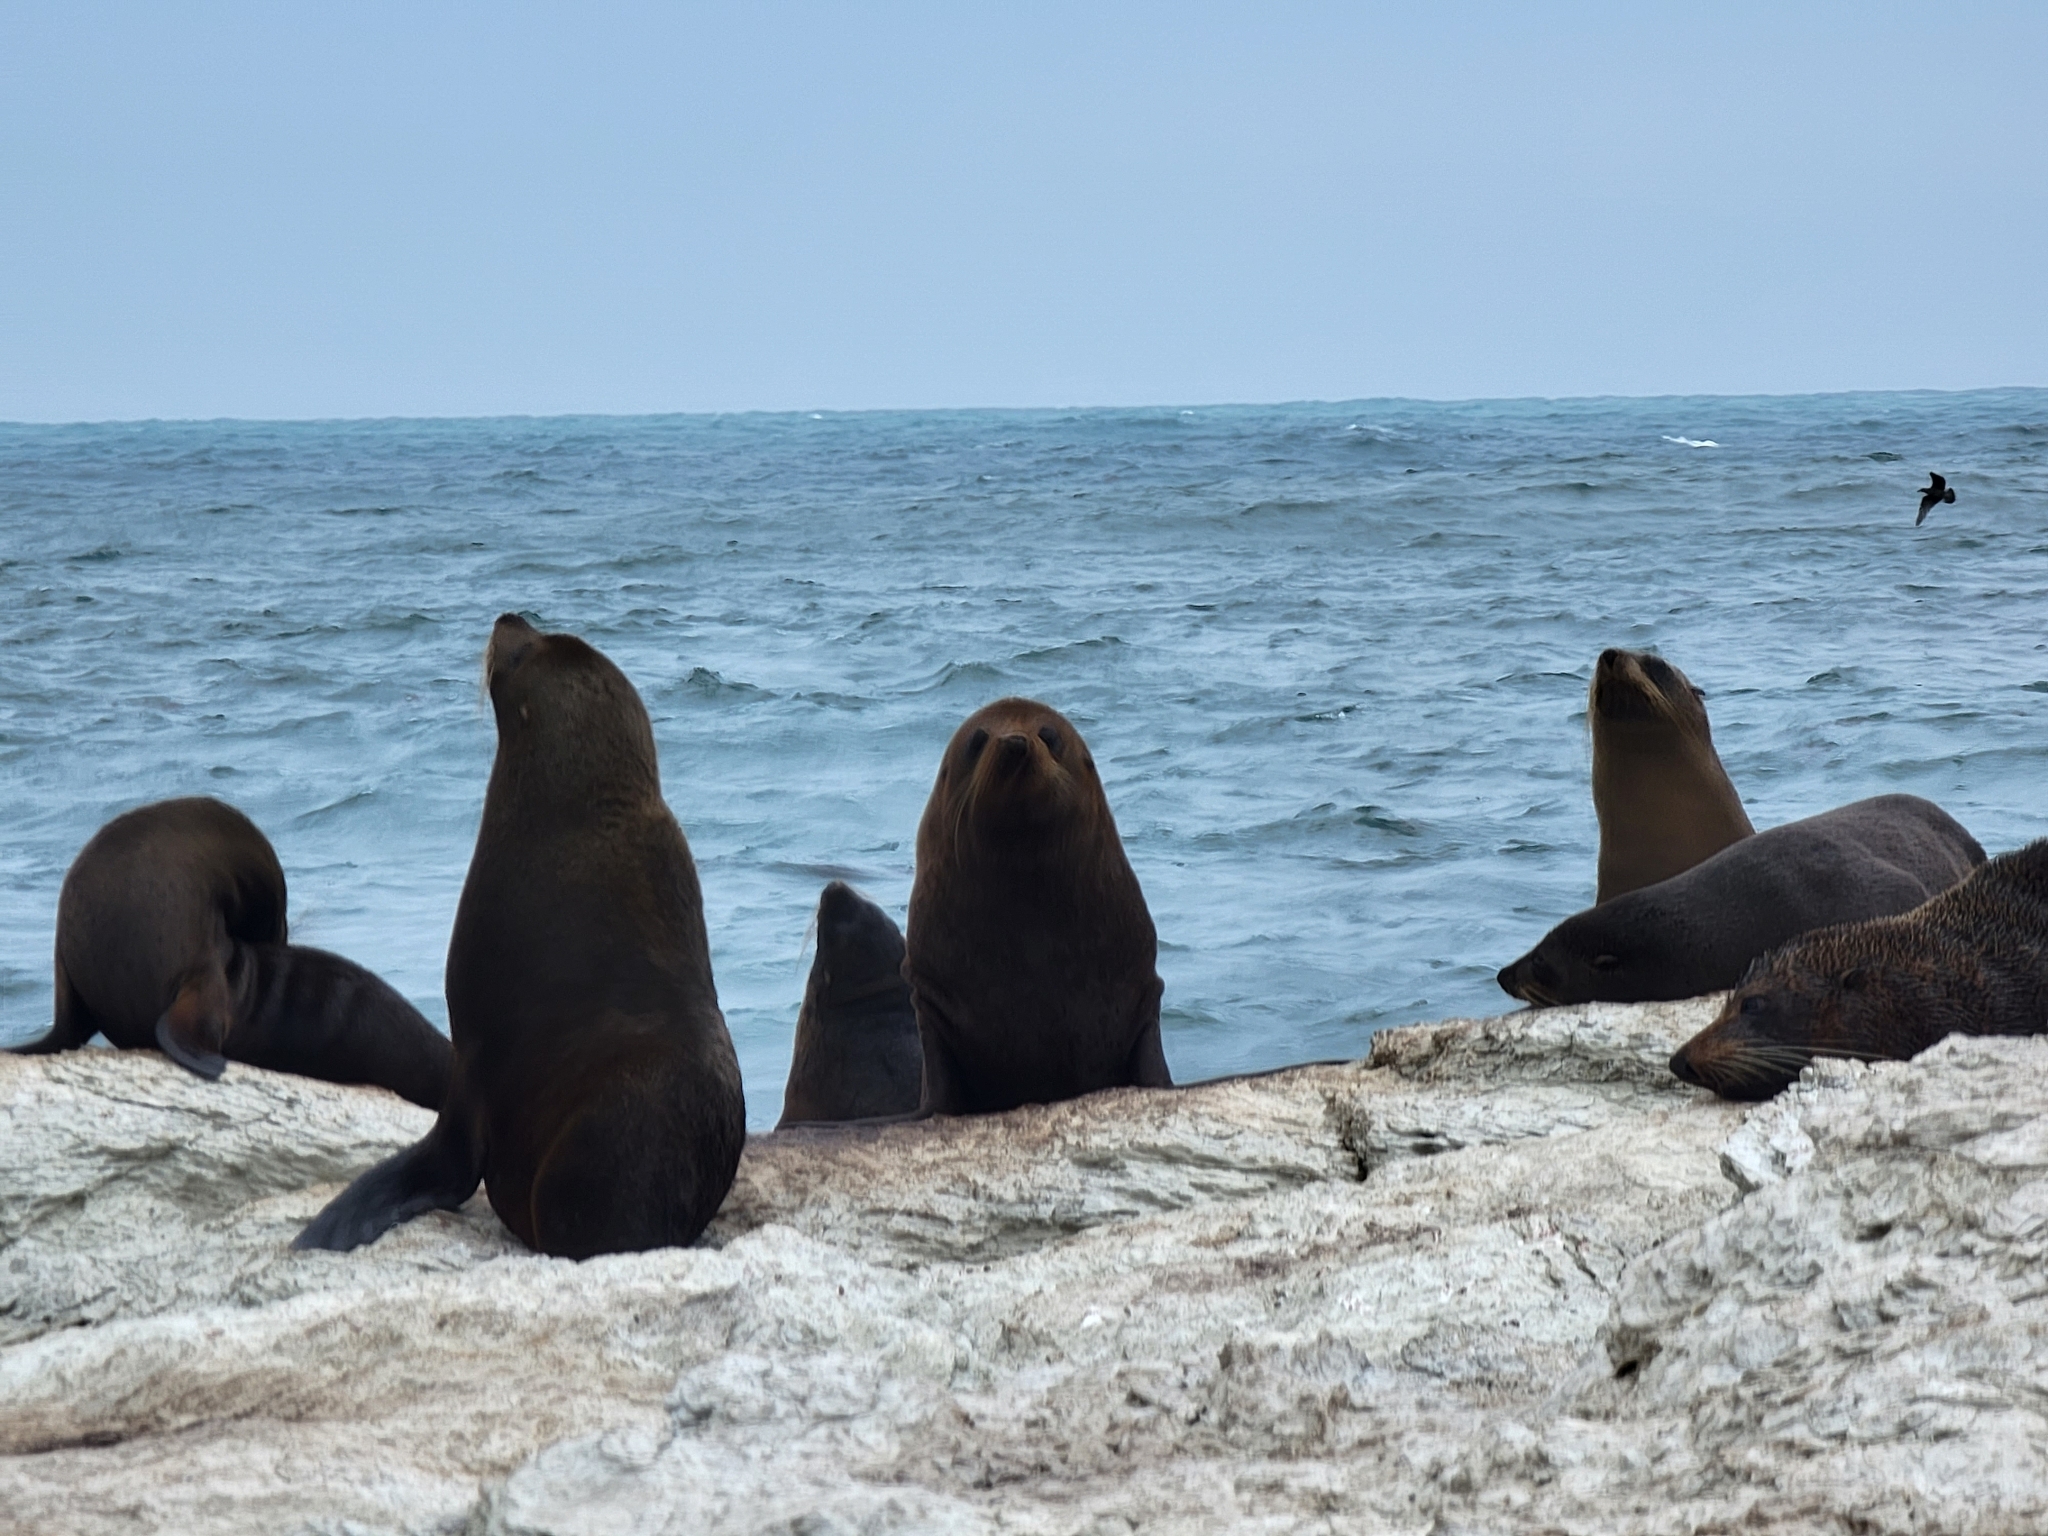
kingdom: Animalia
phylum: Chordata
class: Mammalia
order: Carnivora
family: Otariidae
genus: Arctocephalus
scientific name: Arctocephalus forsteri
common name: New zealand fur seal
